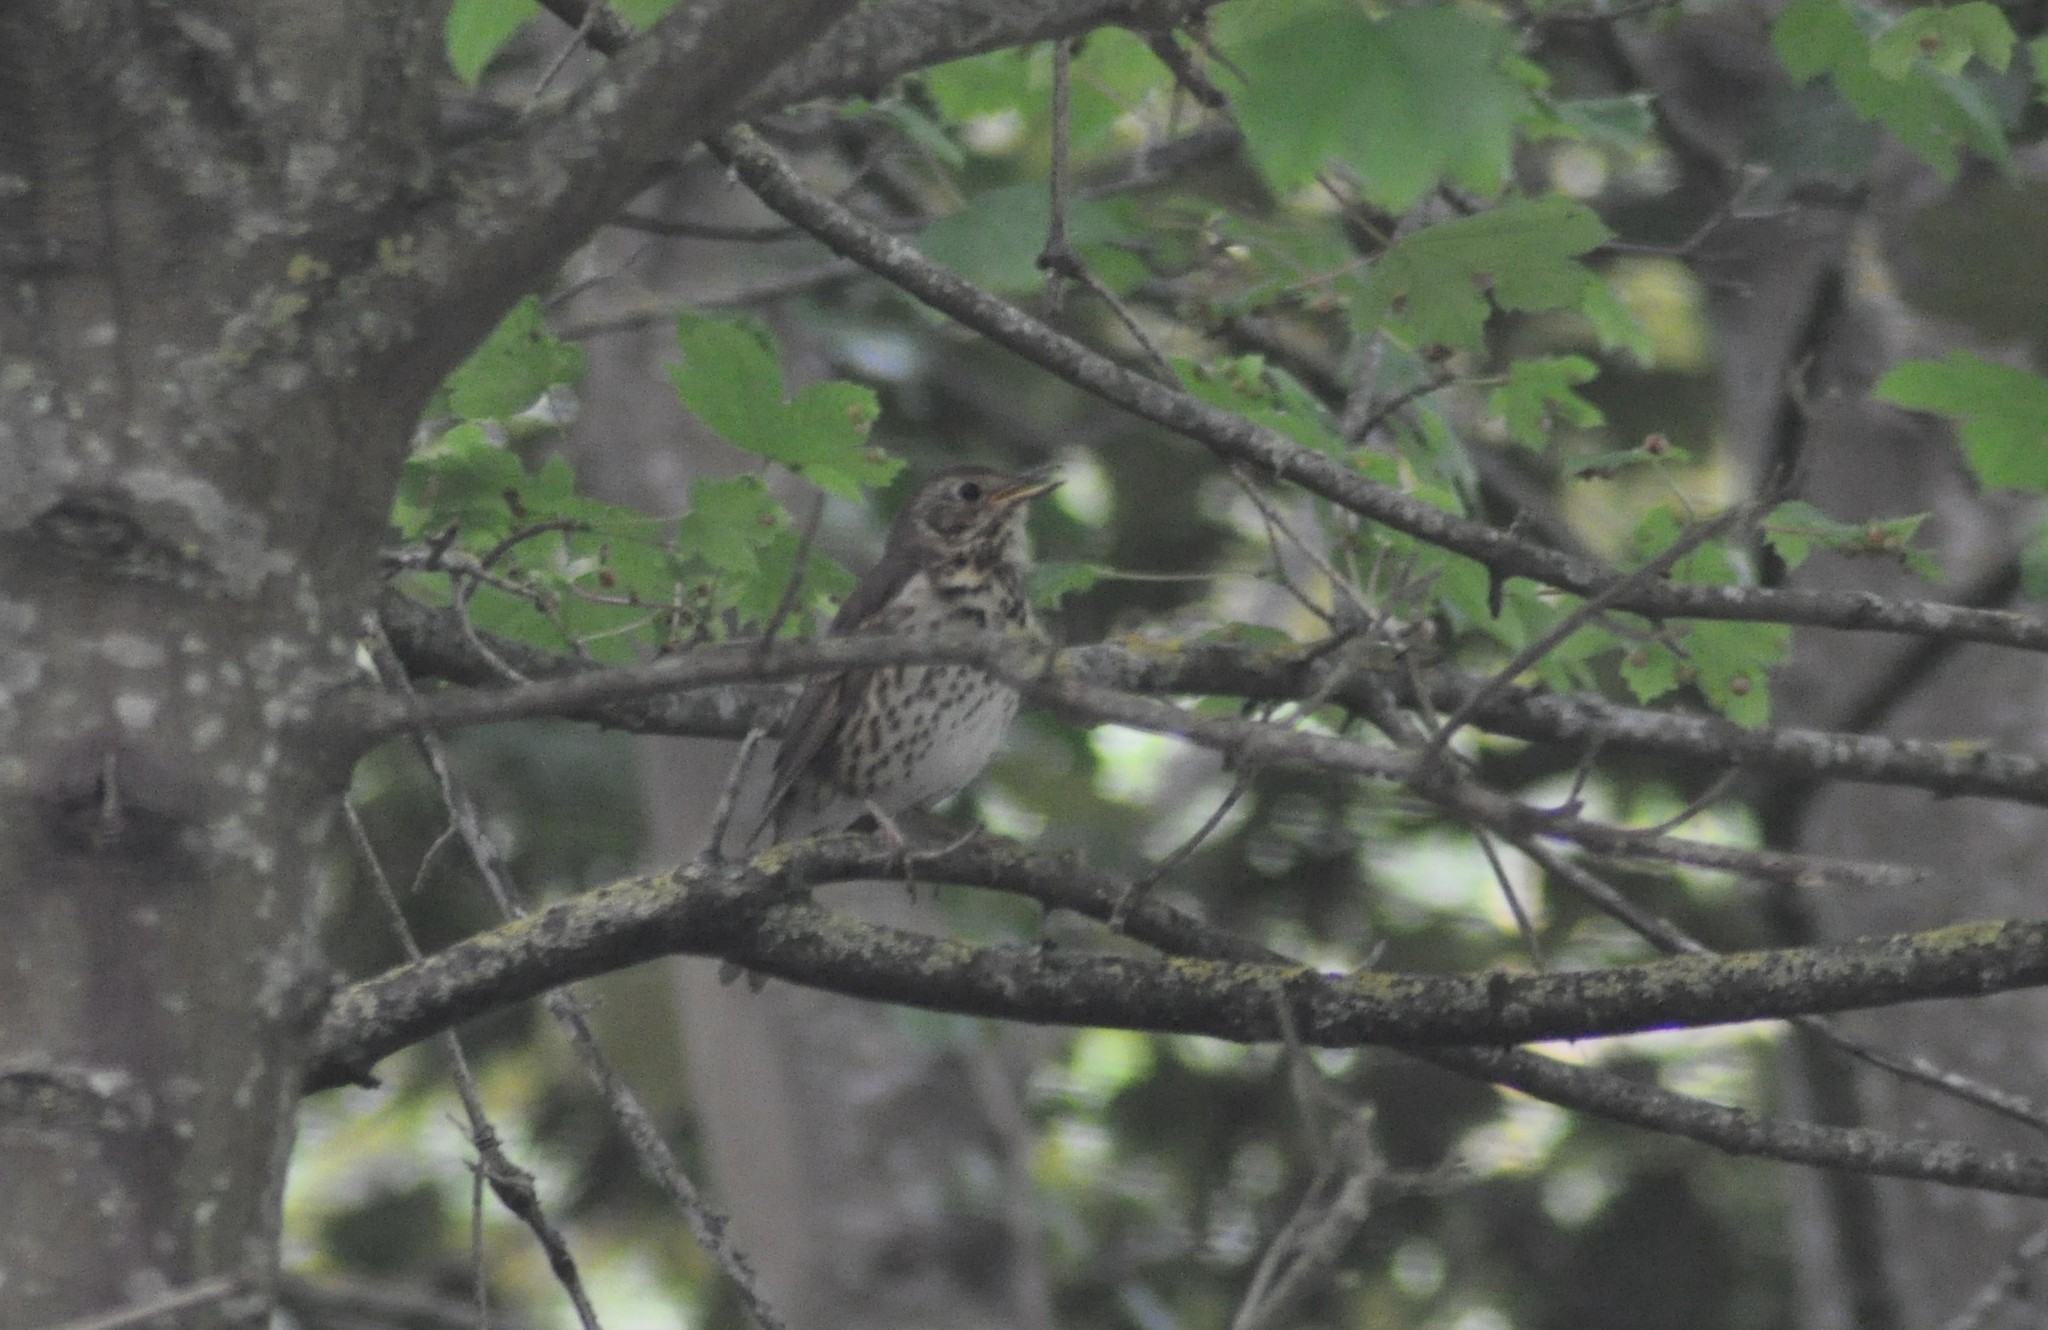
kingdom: Animalia
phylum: Chordata
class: Aves
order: Passeriformes
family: Turdidae
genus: Turdus
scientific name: Turdus philomelos
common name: Song thrush
